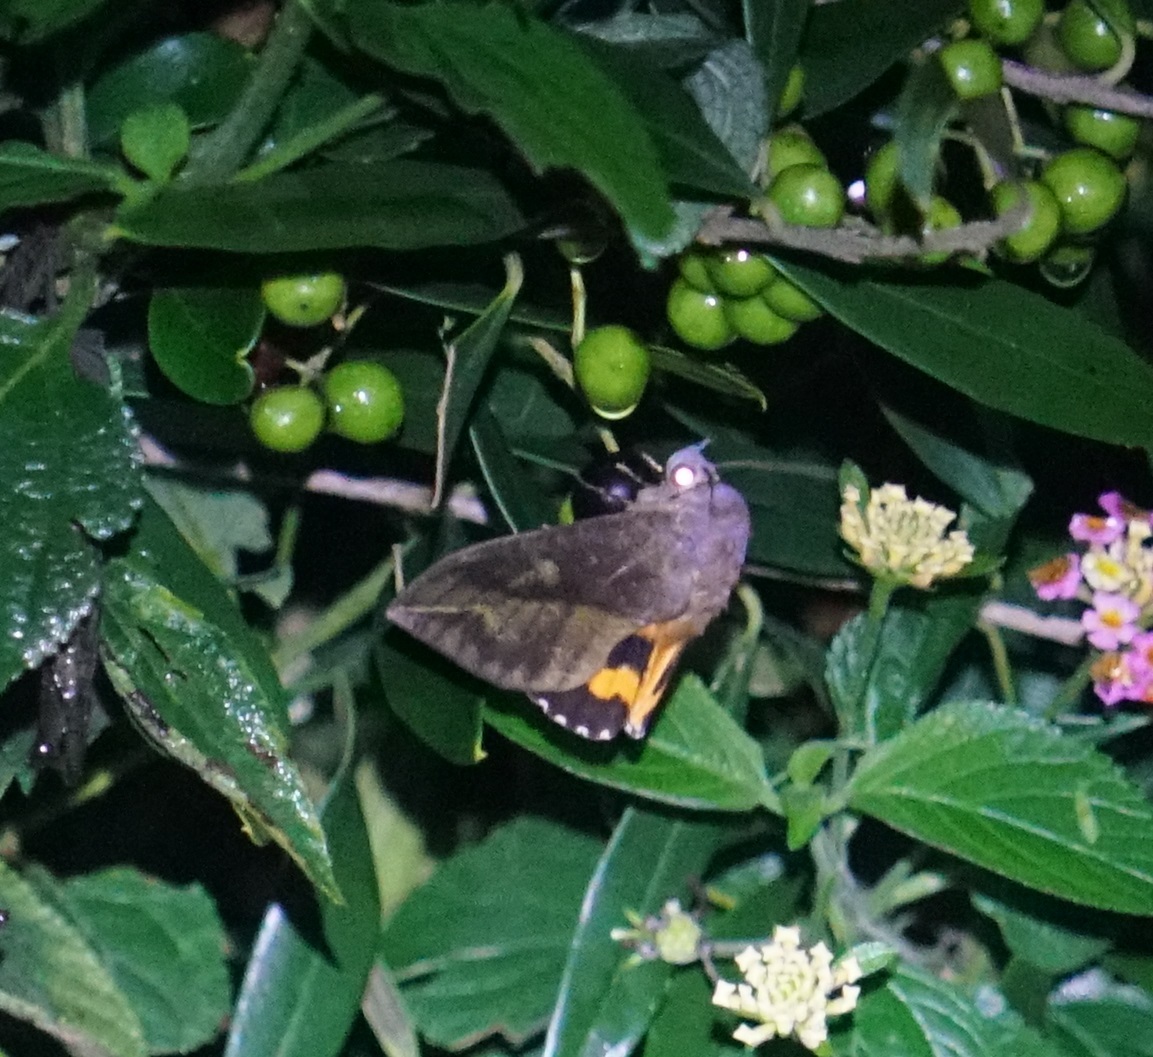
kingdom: Animalia
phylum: Arthropoda
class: Insecta
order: Lepidoptera
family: Erebidae
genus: Eudocima
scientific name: Eudocima phalonia
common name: Wasp
